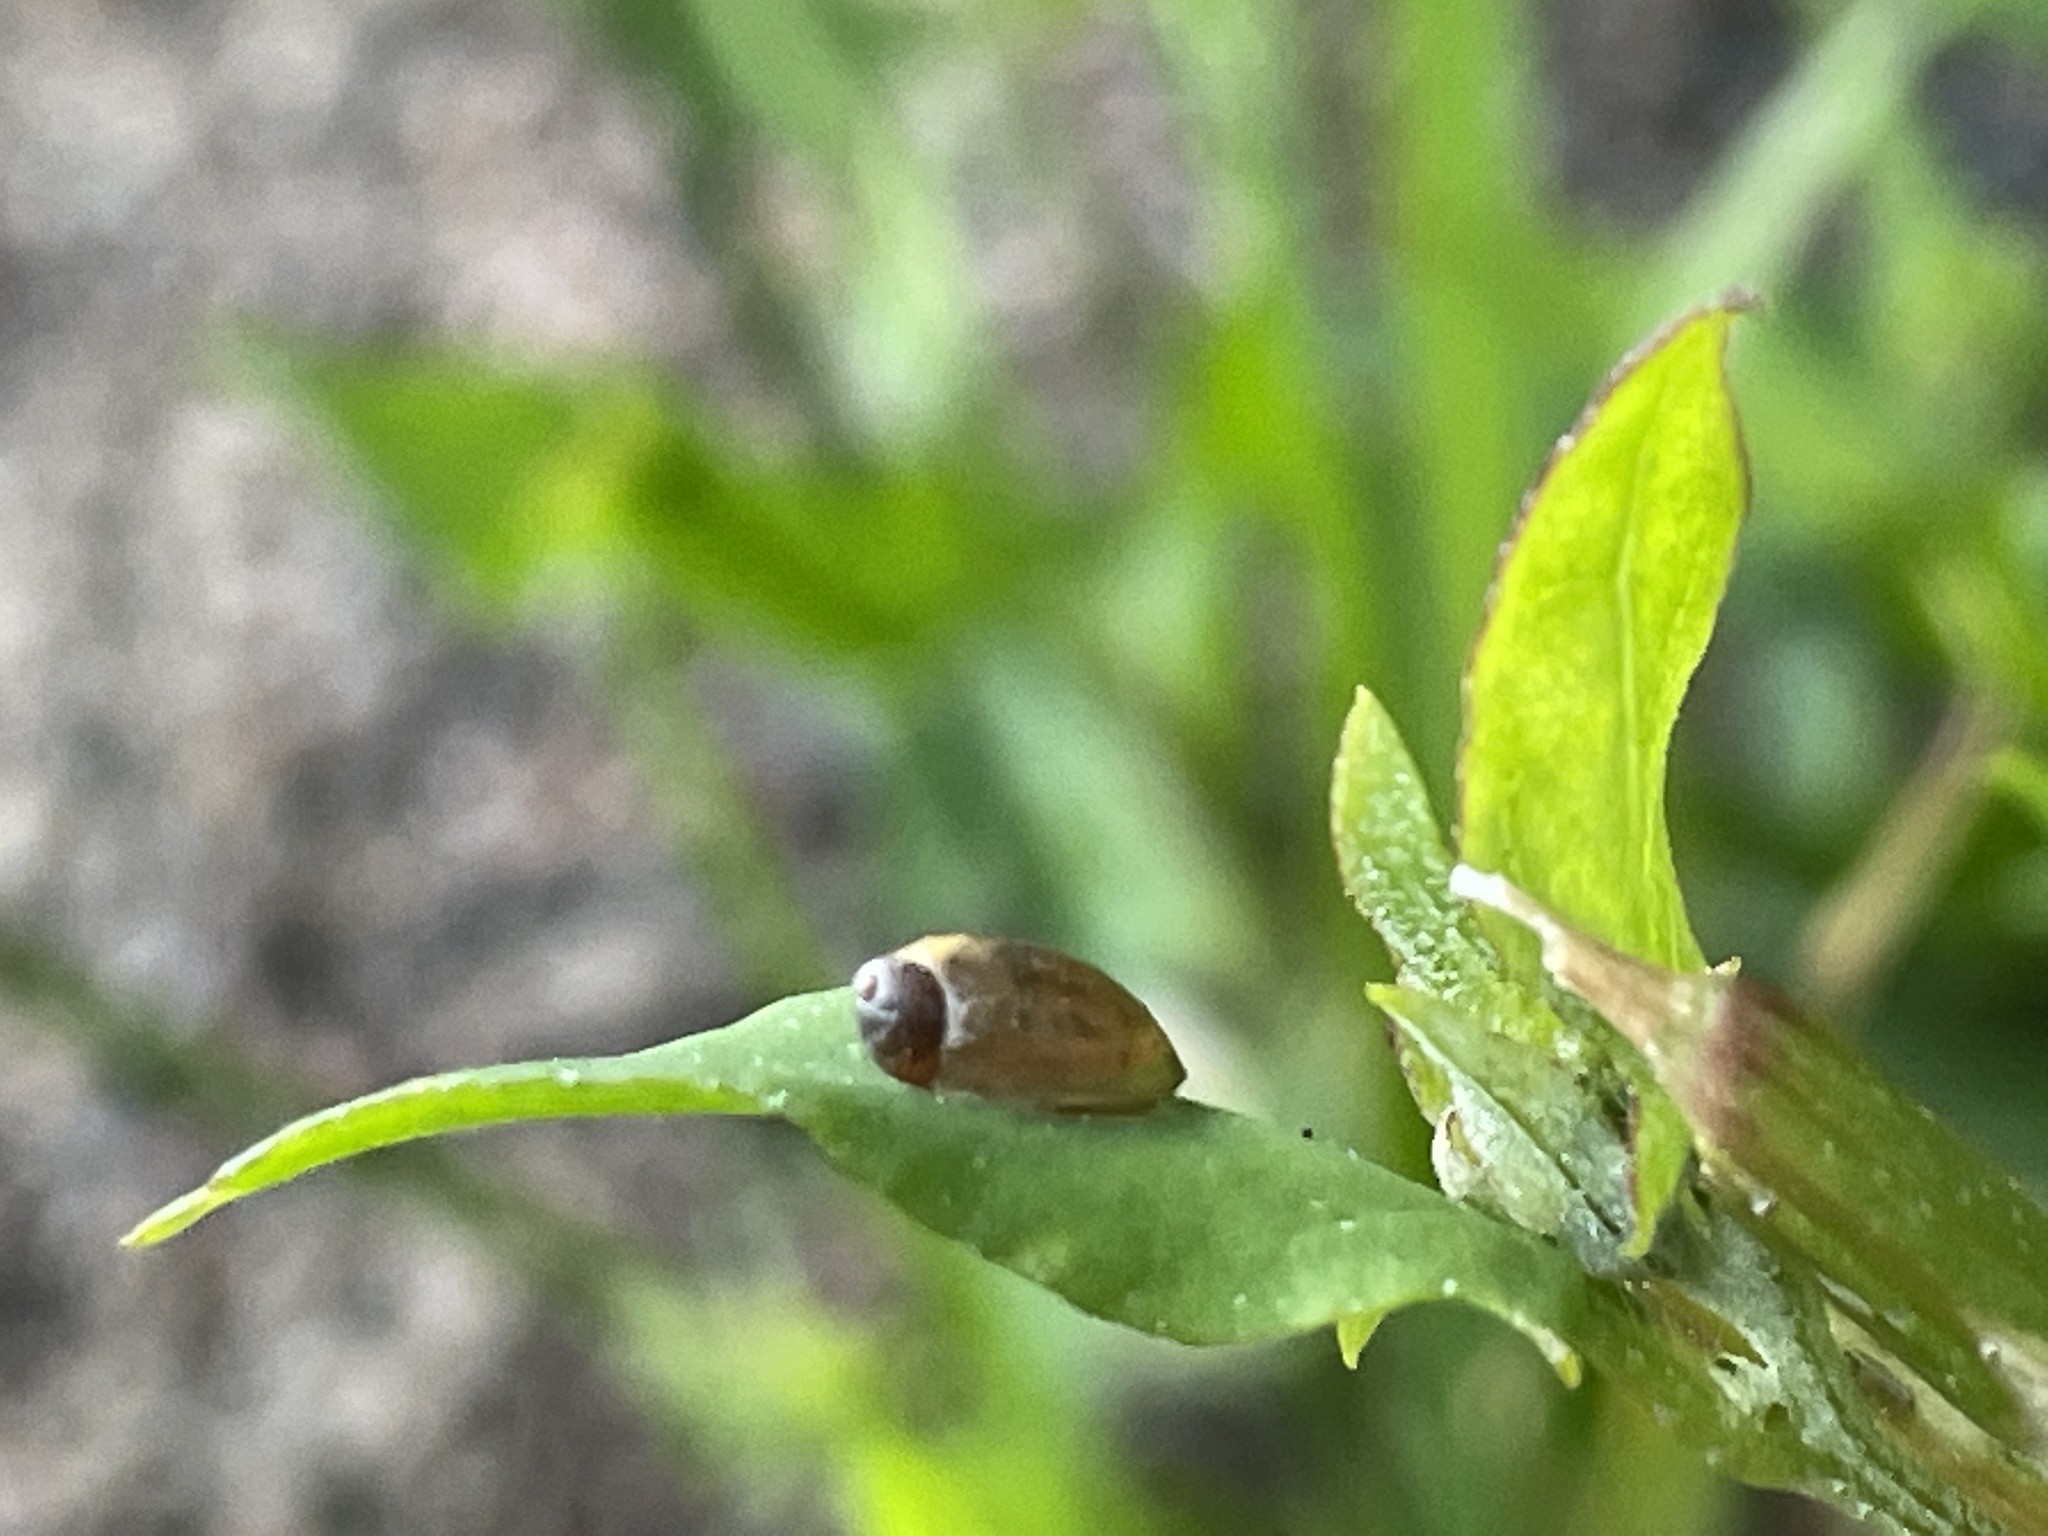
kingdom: Animalia
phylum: Mollusca
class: Gastropoda
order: Stylommatophora
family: Succineidae
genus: Succinea
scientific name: Succinea putris
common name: European ambersnail
